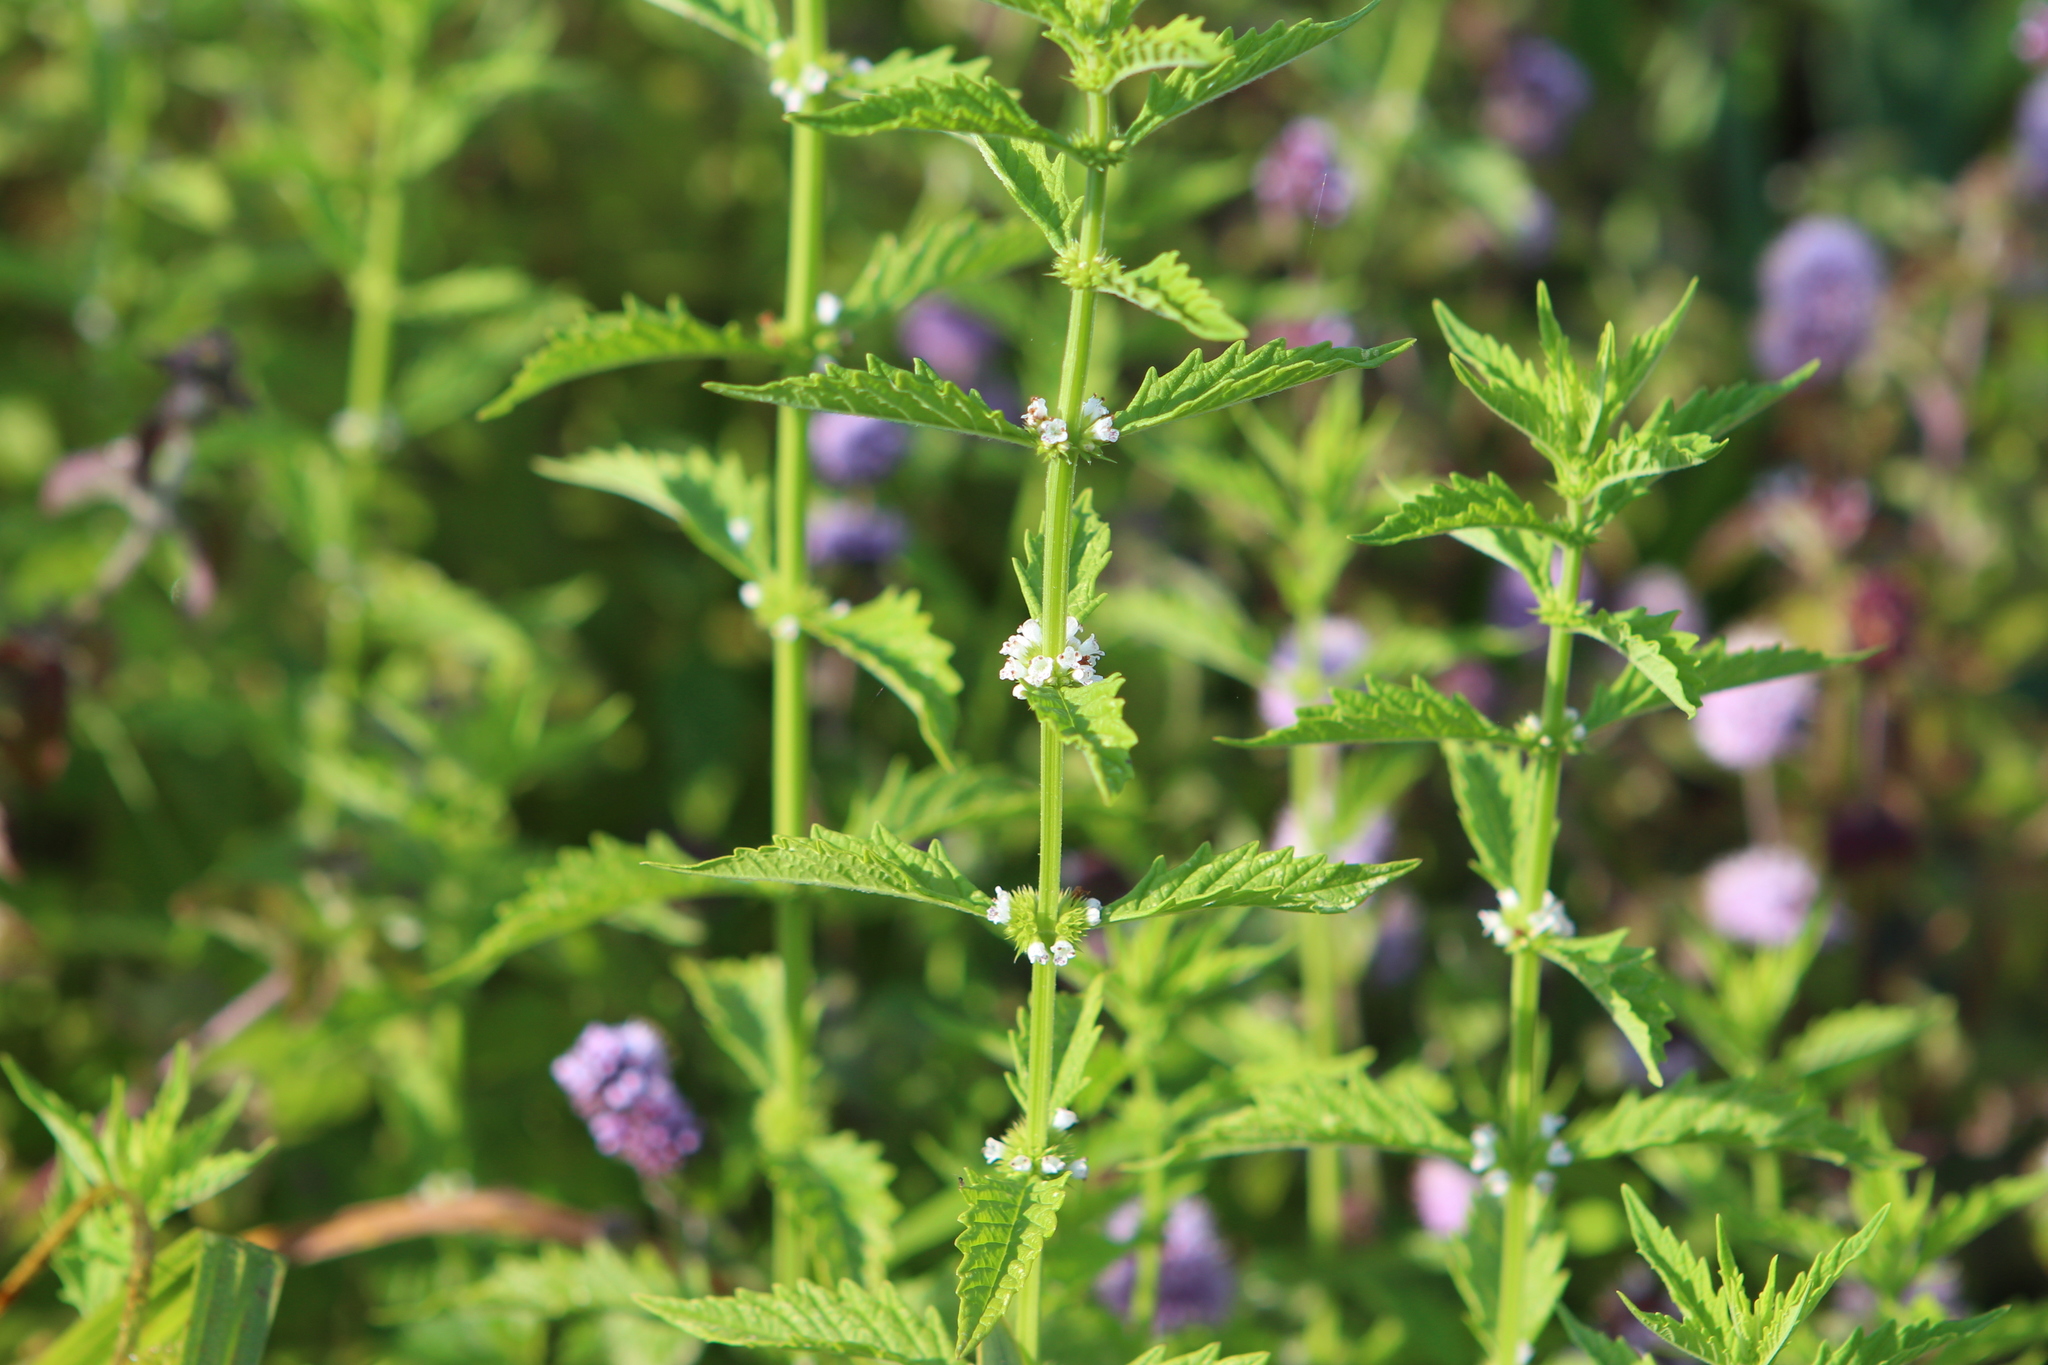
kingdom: Plantae
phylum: Tracheophyta
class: Magnoliopsida
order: Lamiales
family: Lamiaceae
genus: Lycopus
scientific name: Lycopus europaeus
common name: European bugleweed
